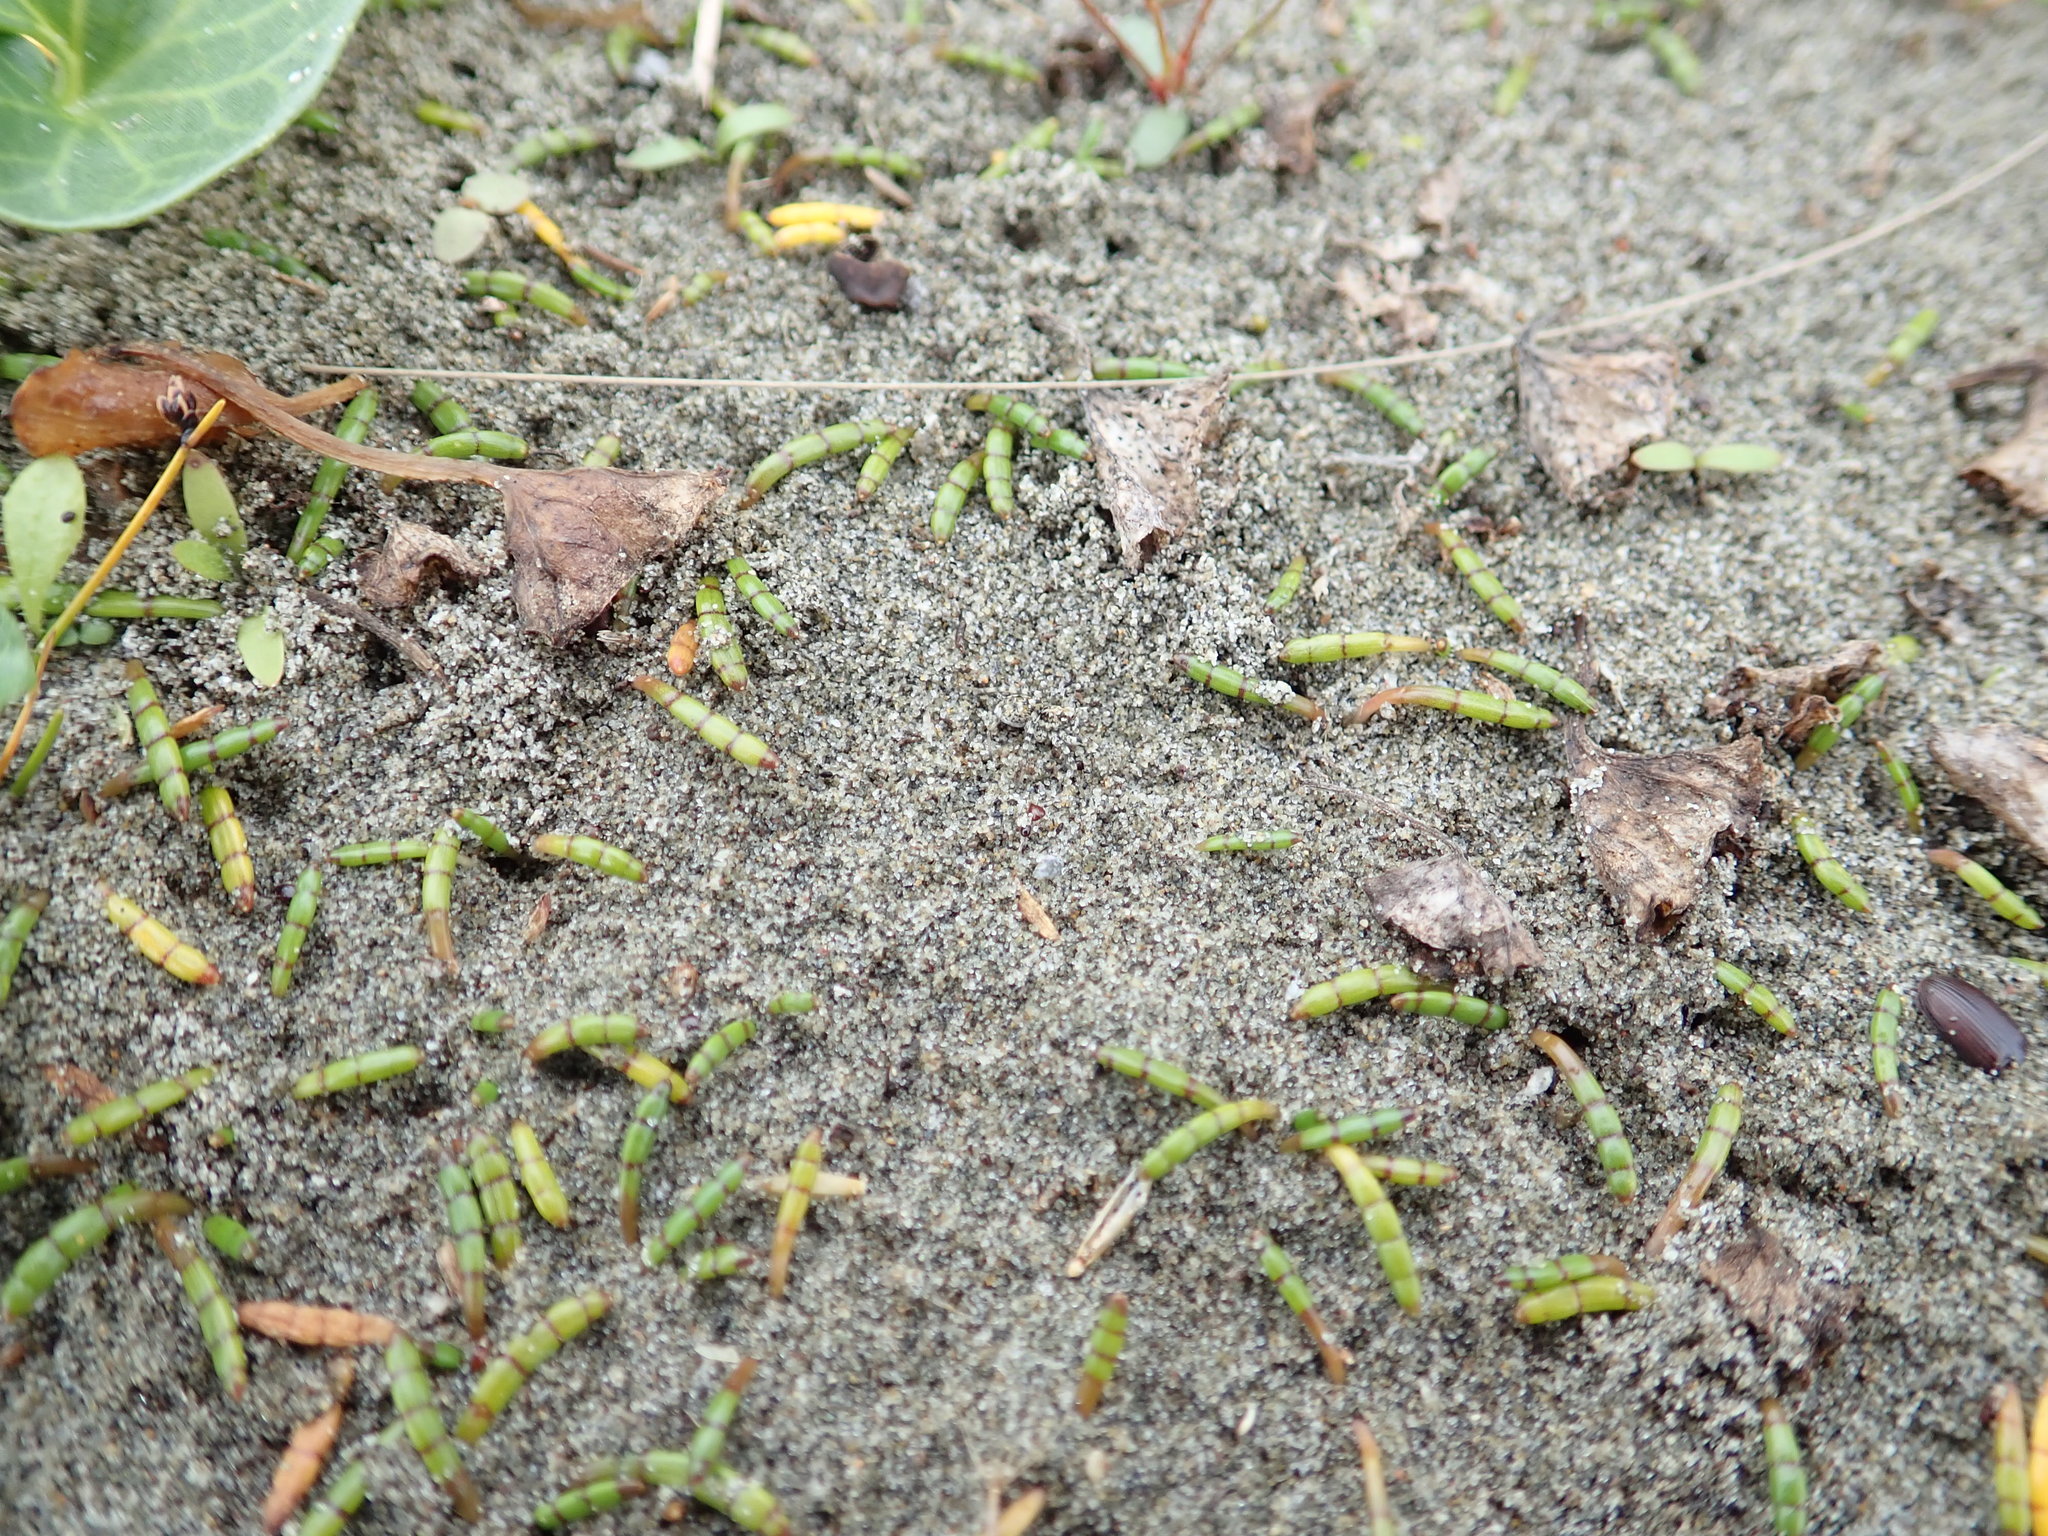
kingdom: Animalia
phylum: Arthropoda
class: Arachnida
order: Araneae
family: Lycosidae
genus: Anoteropsis
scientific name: Anoteropsis litoralis
